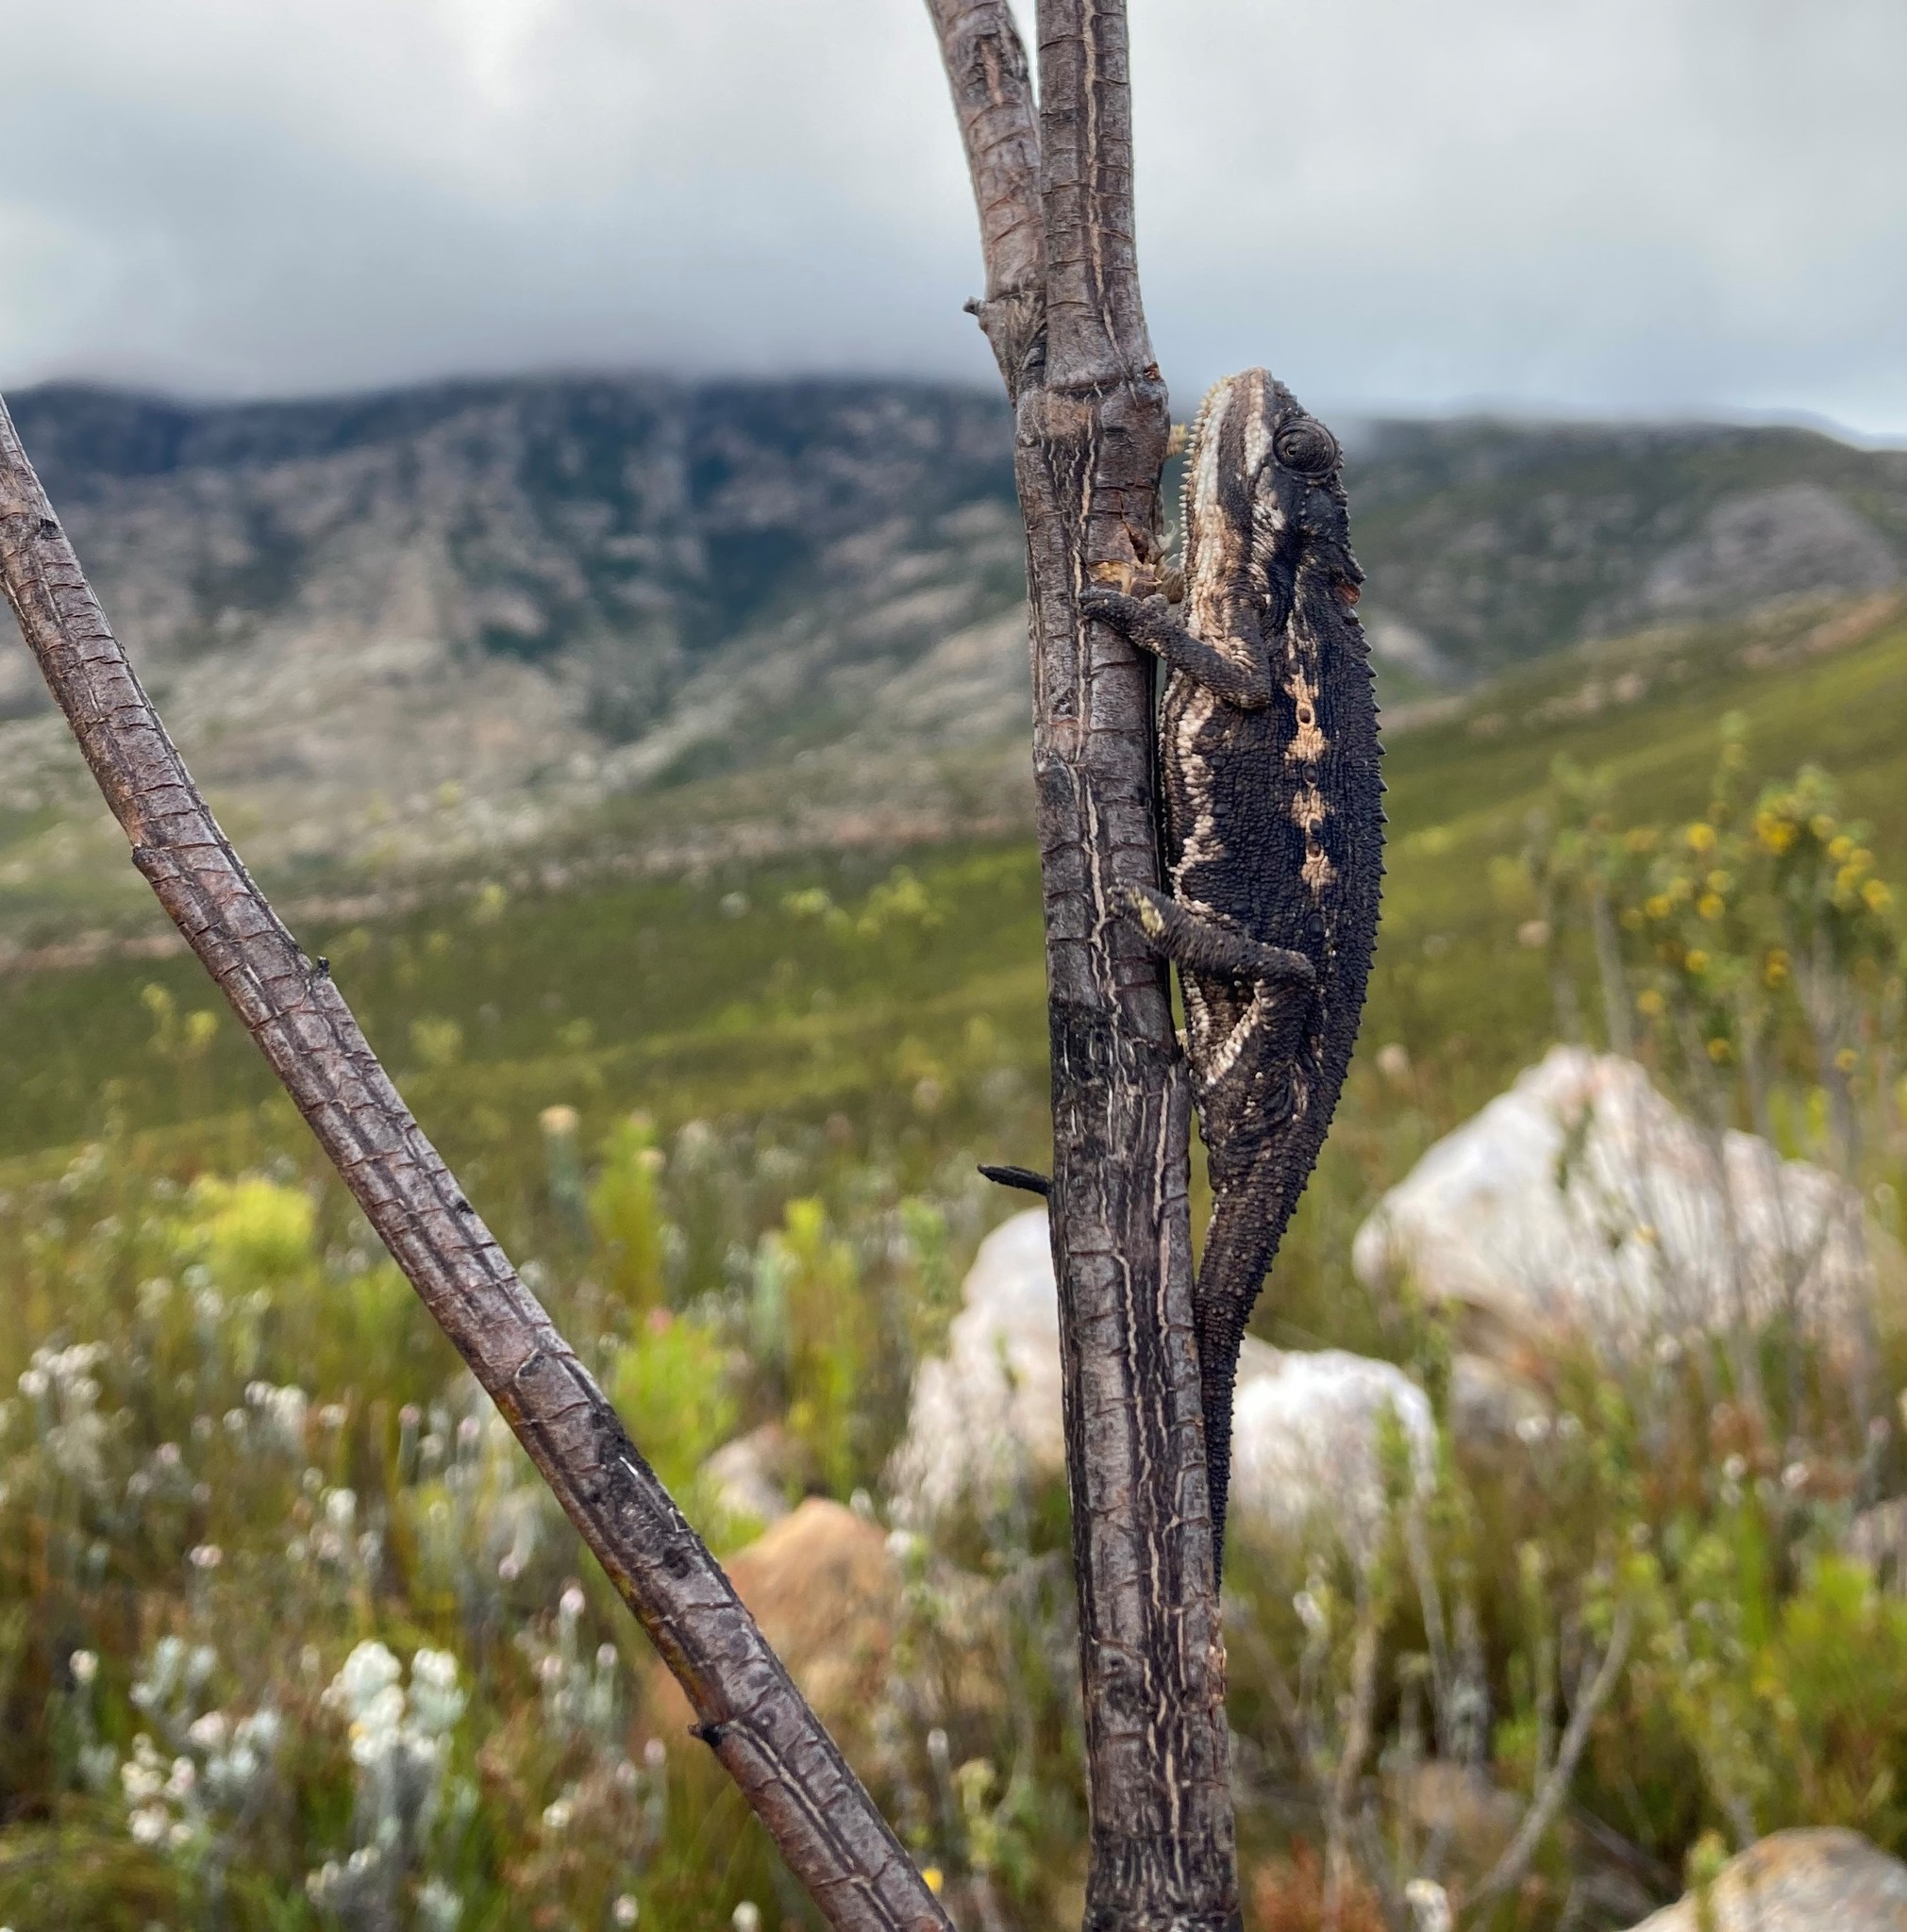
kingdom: Animalia
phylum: Chordata
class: Squamata
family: Chamaeleonidae
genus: Bradypodion
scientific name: Bradypodion gutturale
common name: Little karoo dwarf chameleon
